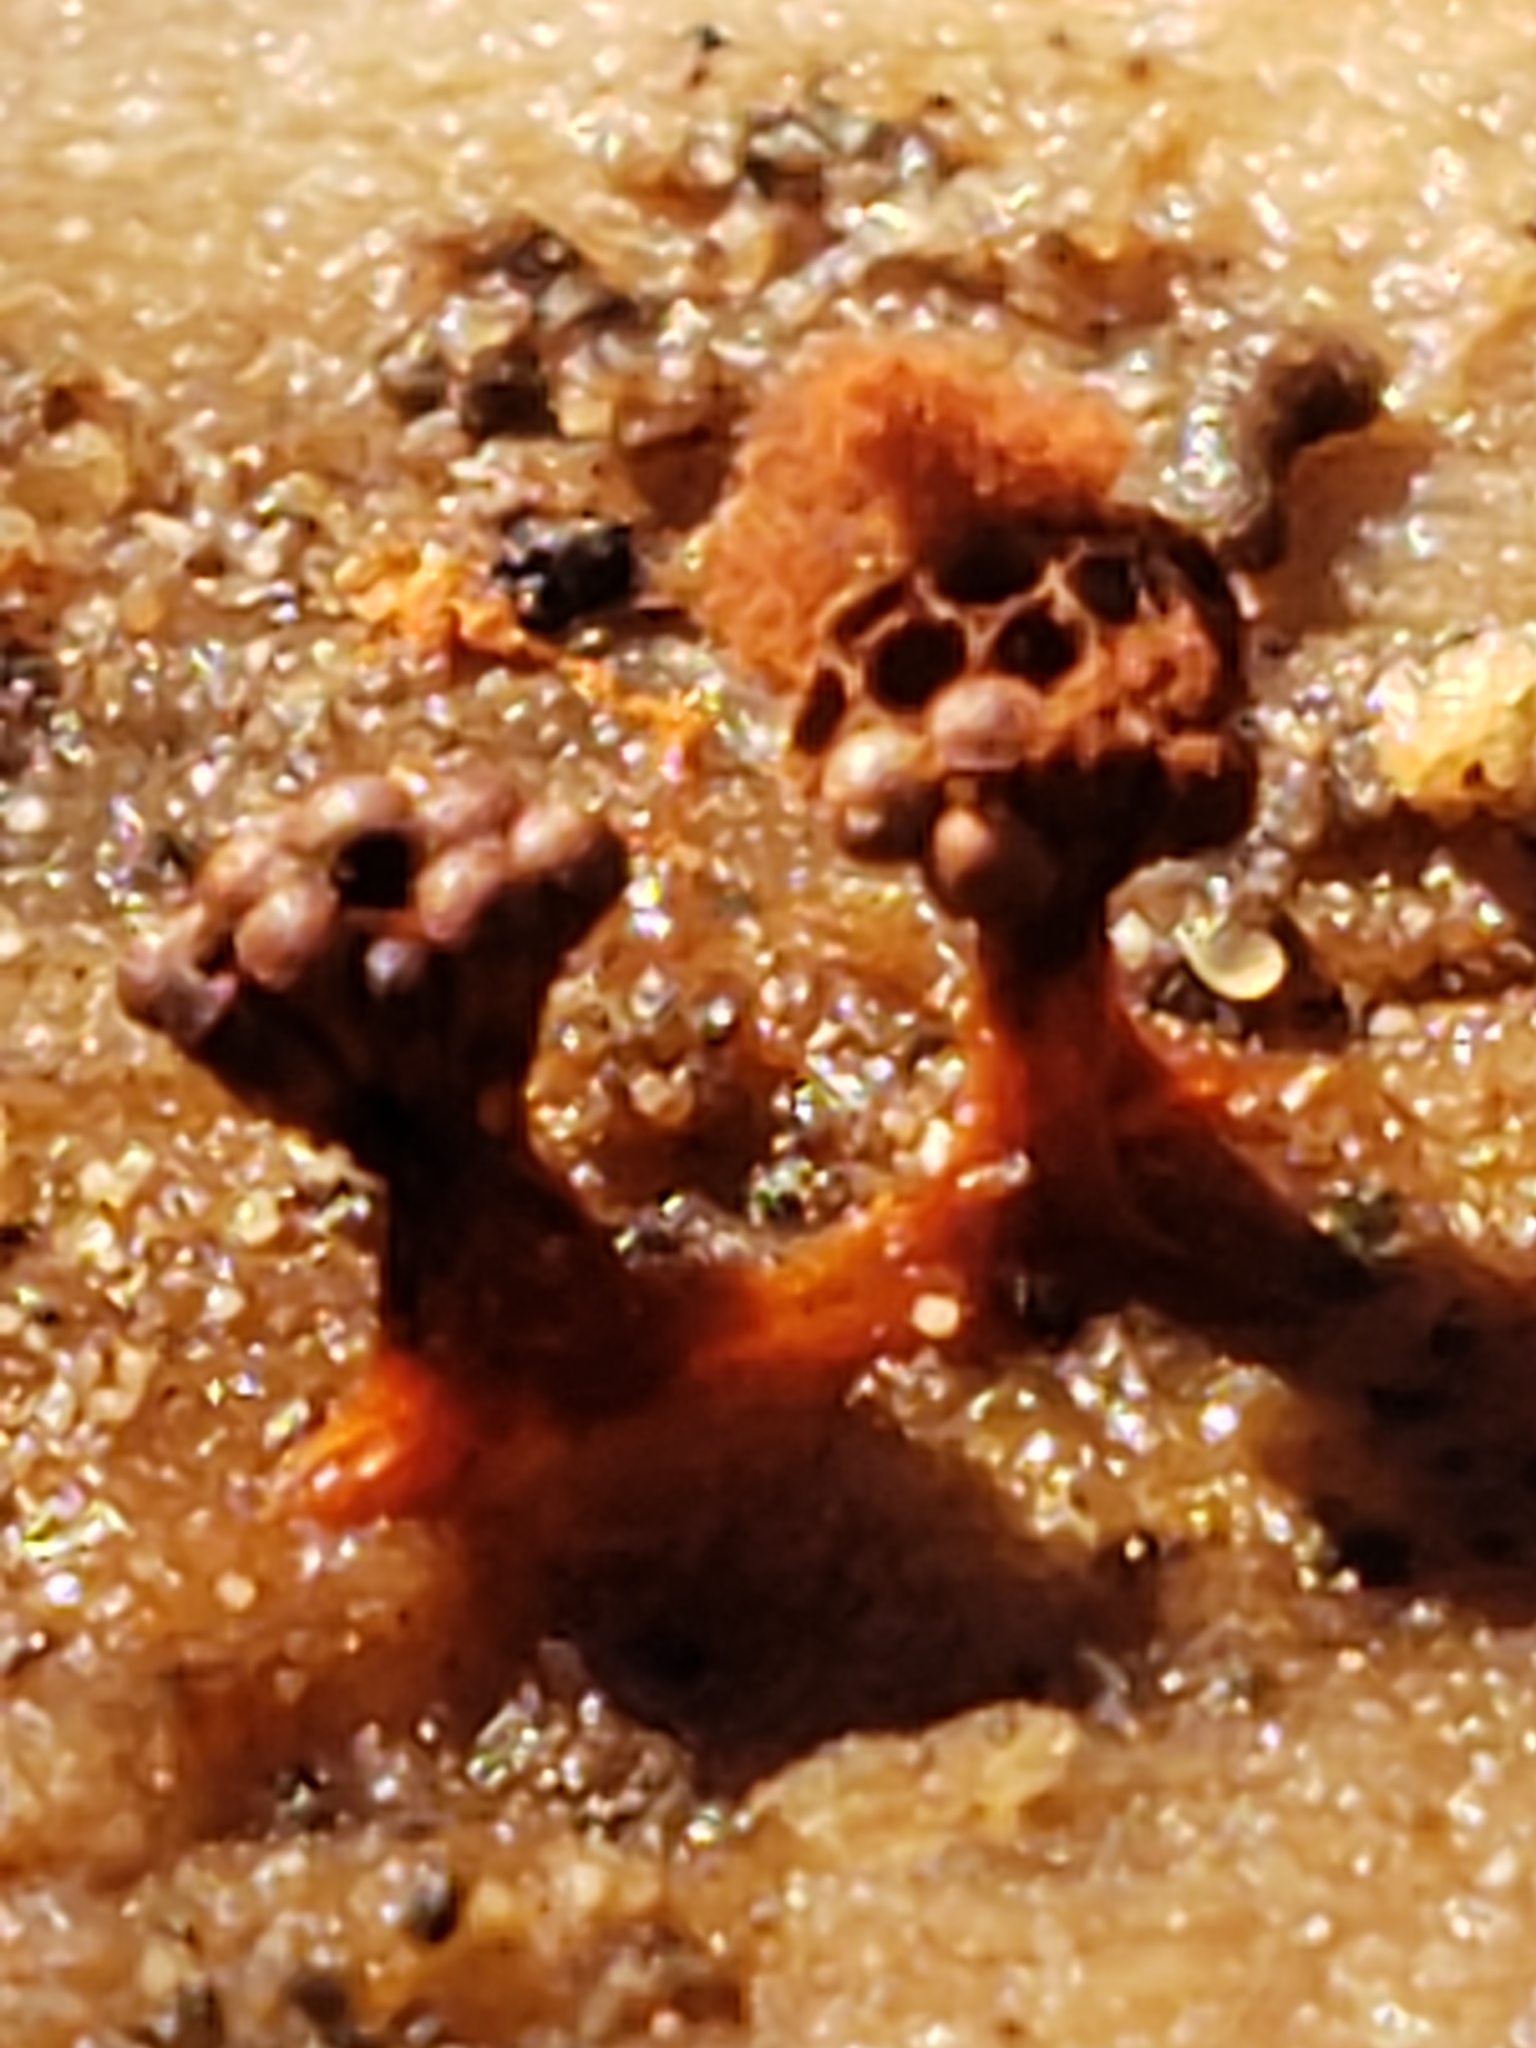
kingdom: Protozoa
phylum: Mycetozoa
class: Myxomycetes
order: Trichiales
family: Trichiaceae
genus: Metatrichia
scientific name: Metatrichia vesparia
